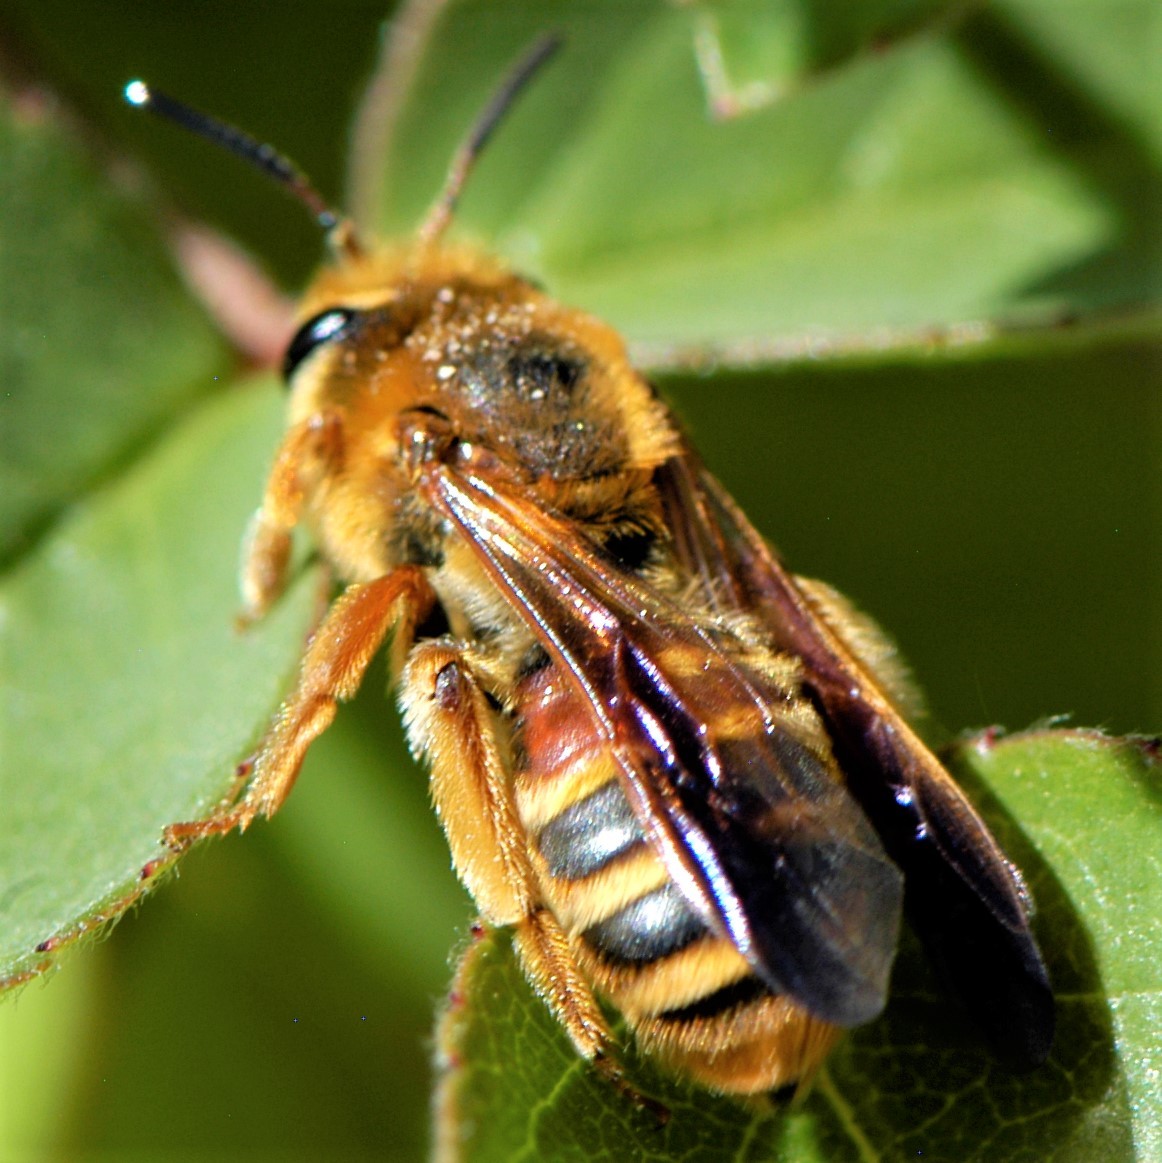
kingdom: Animalia
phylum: Arthropoda
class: Insecta
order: Hymenoptera
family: Andrenidae
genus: Andrena
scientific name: Andrena prunorum
